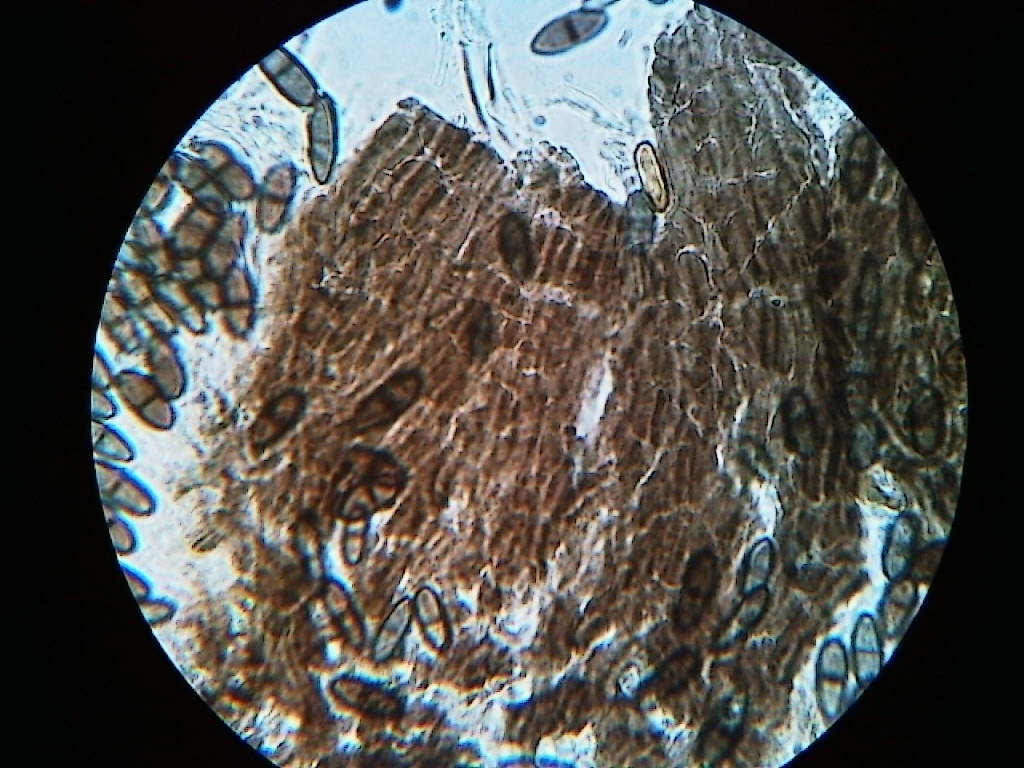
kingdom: Fungi
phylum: Ascomycota
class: Eurotiomycetes
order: Mycocaliciales
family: Mycocaliciaceae
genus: Phaeocalicium
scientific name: Phaeocalicium populneum
